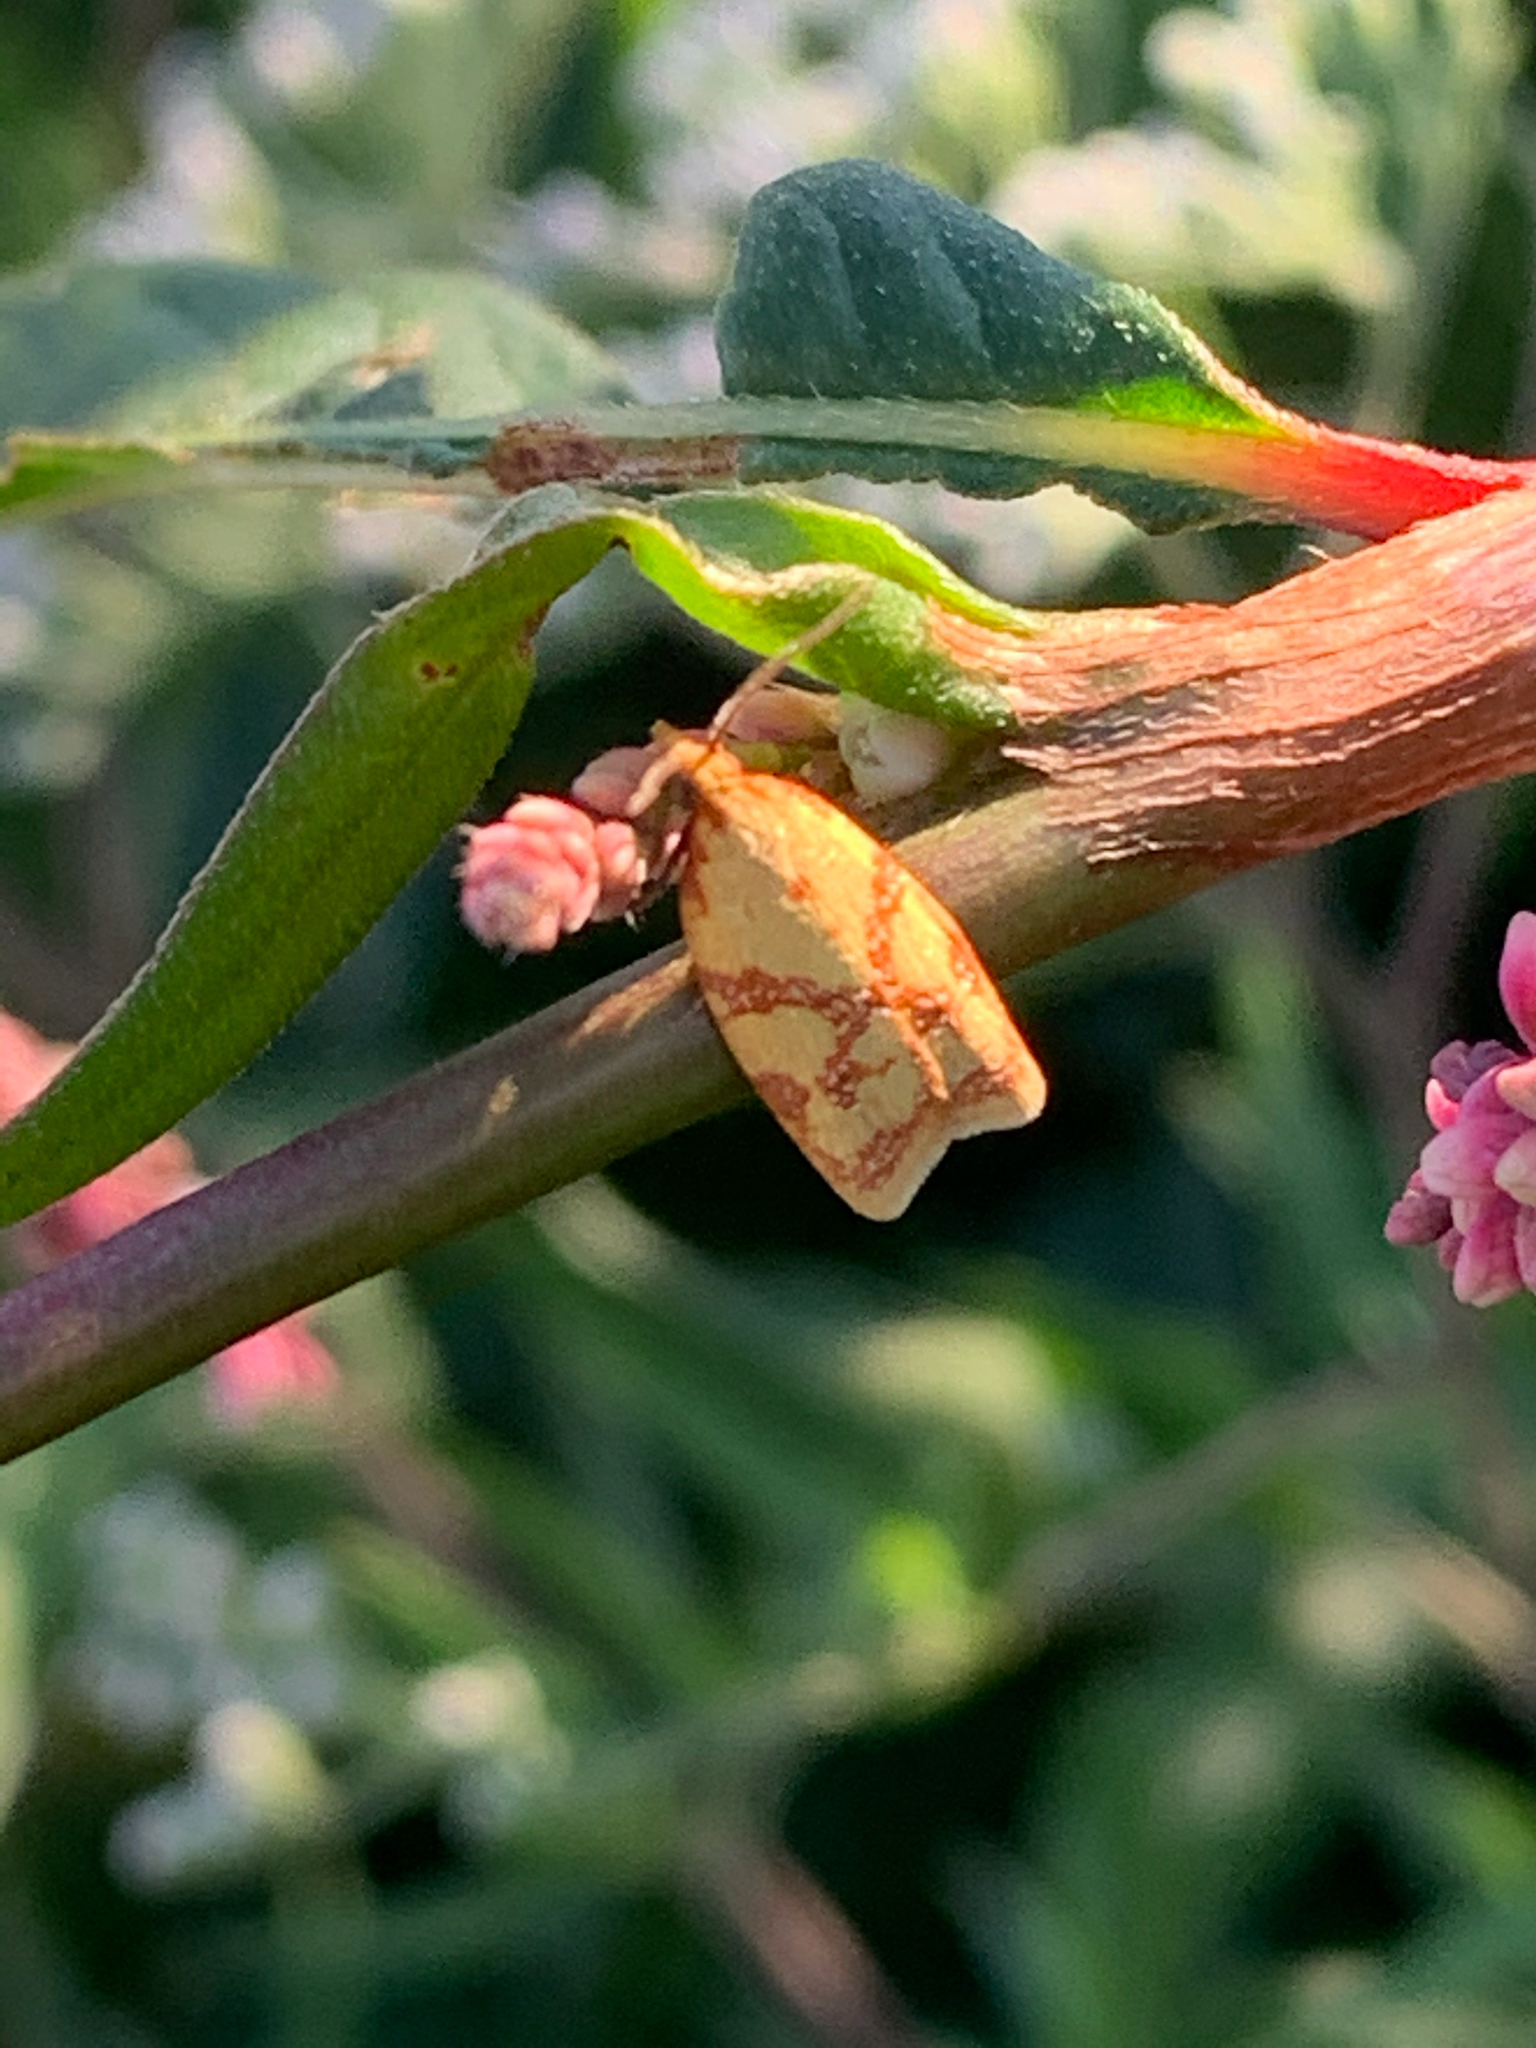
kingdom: Animalia
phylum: Arthropoda
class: Insecta
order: Lepidoptera
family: Tortricidae
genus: Sparganothis
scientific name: Sparganothis sulfureana
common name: Sparganothis fruitworm moth
